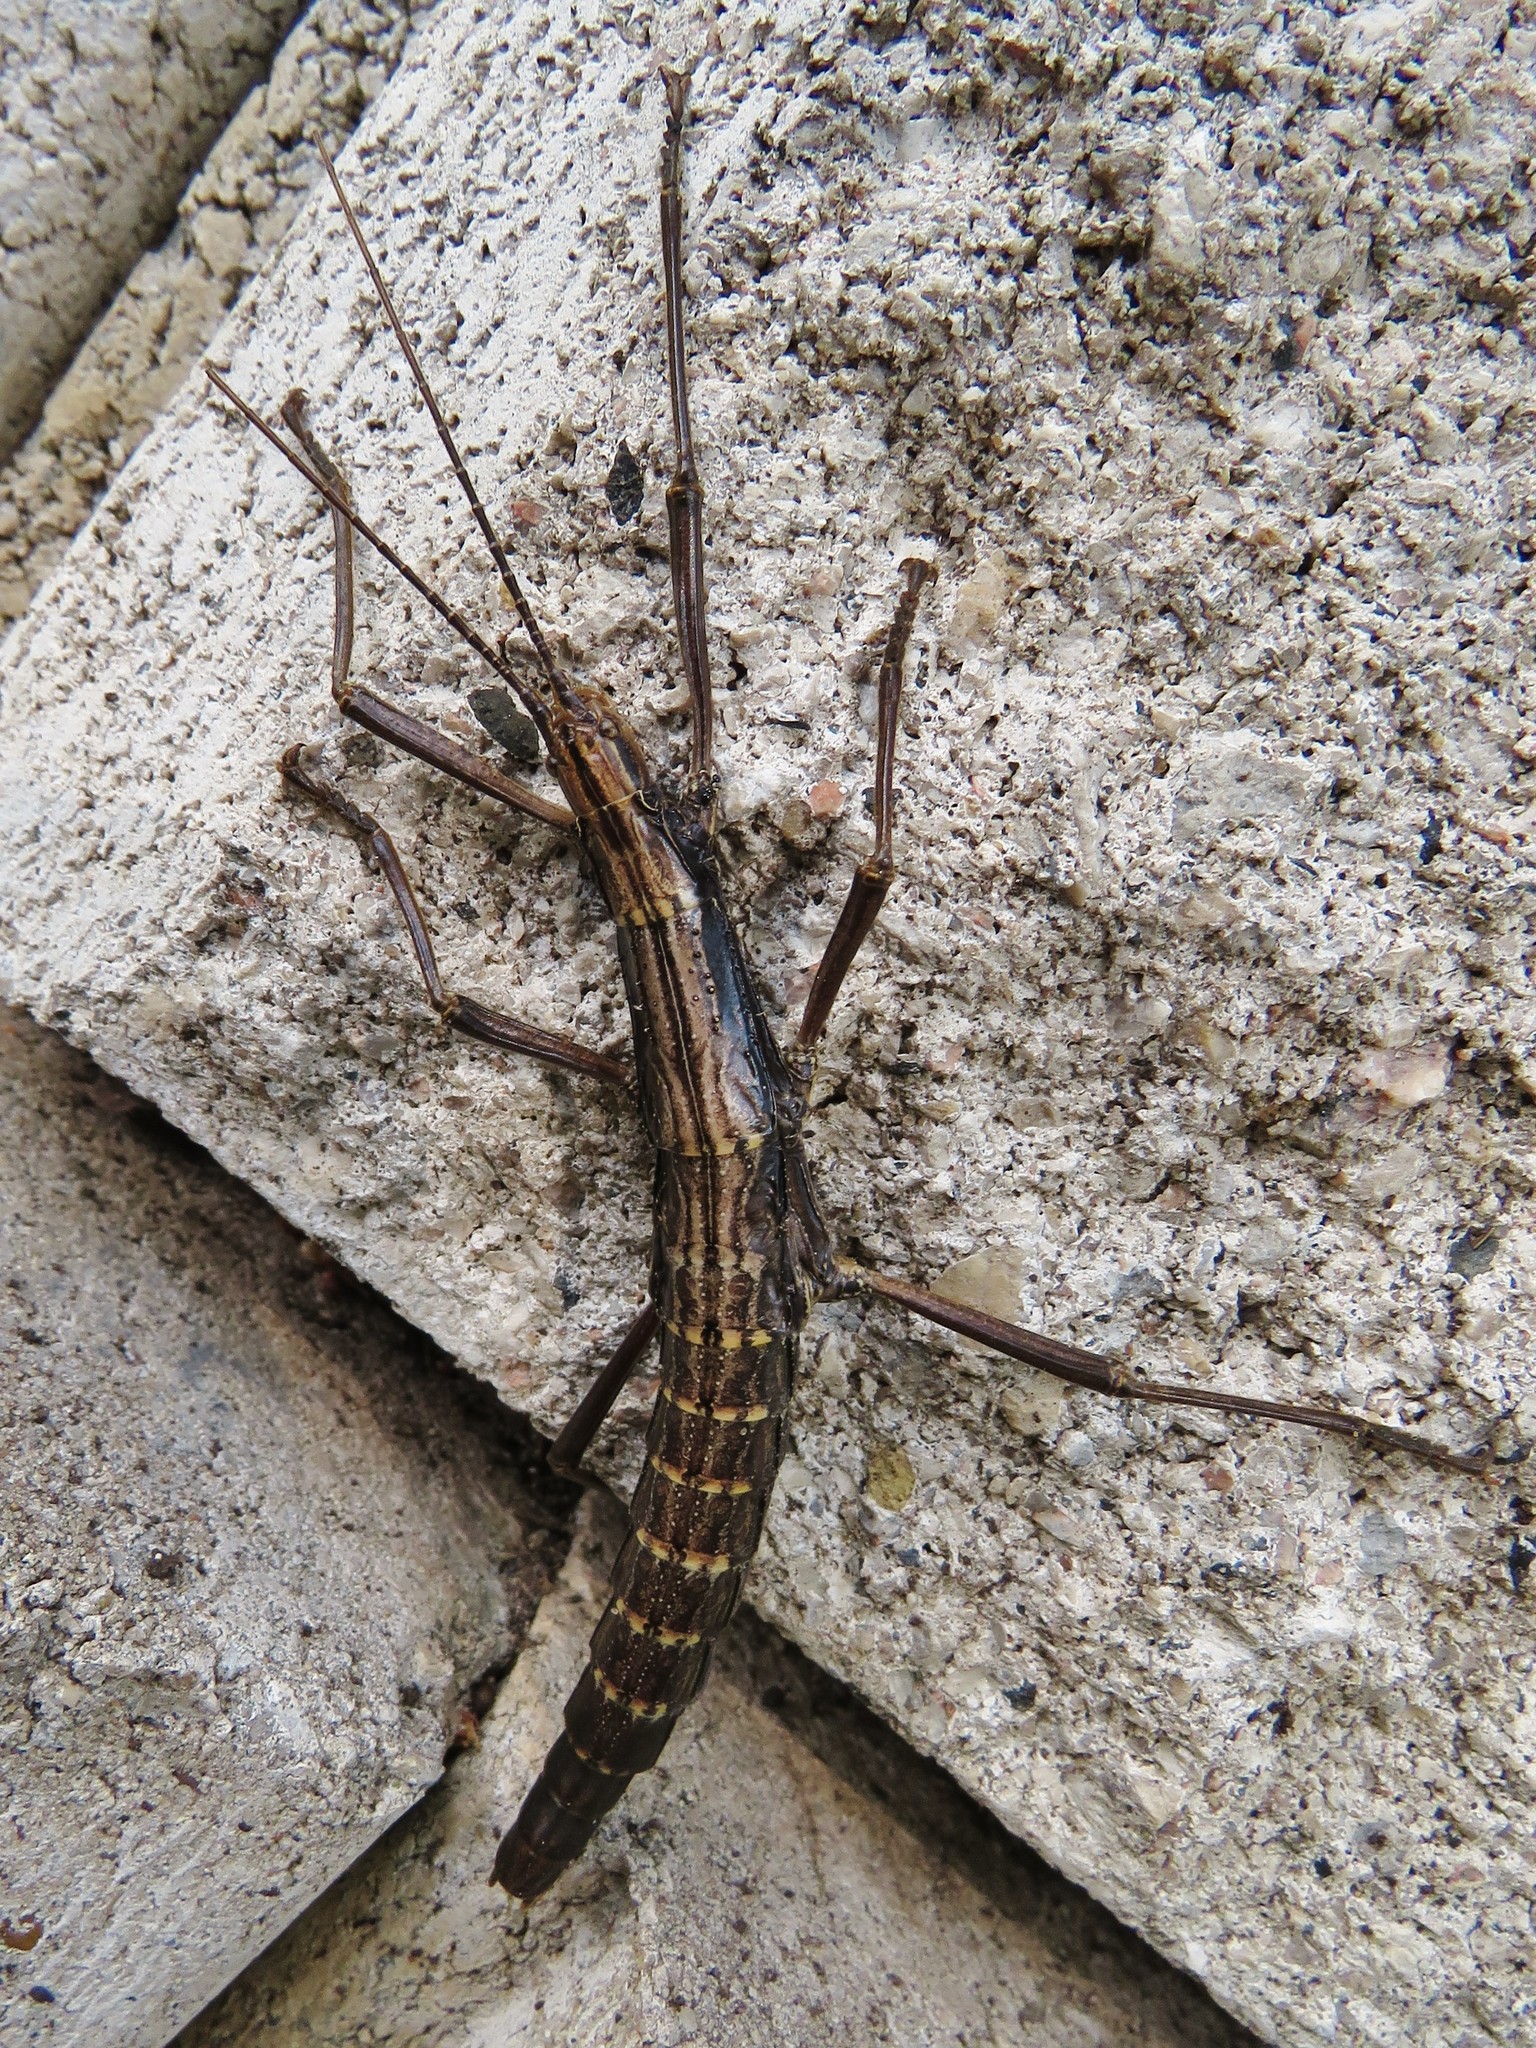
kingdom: Animalia
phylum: Arthropoda
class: Insecta
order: Phasmida
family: Pseudophasmatidae
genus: Anisomorpha
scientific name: Anisomorpha ferruginea
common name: Dark walkingstick
